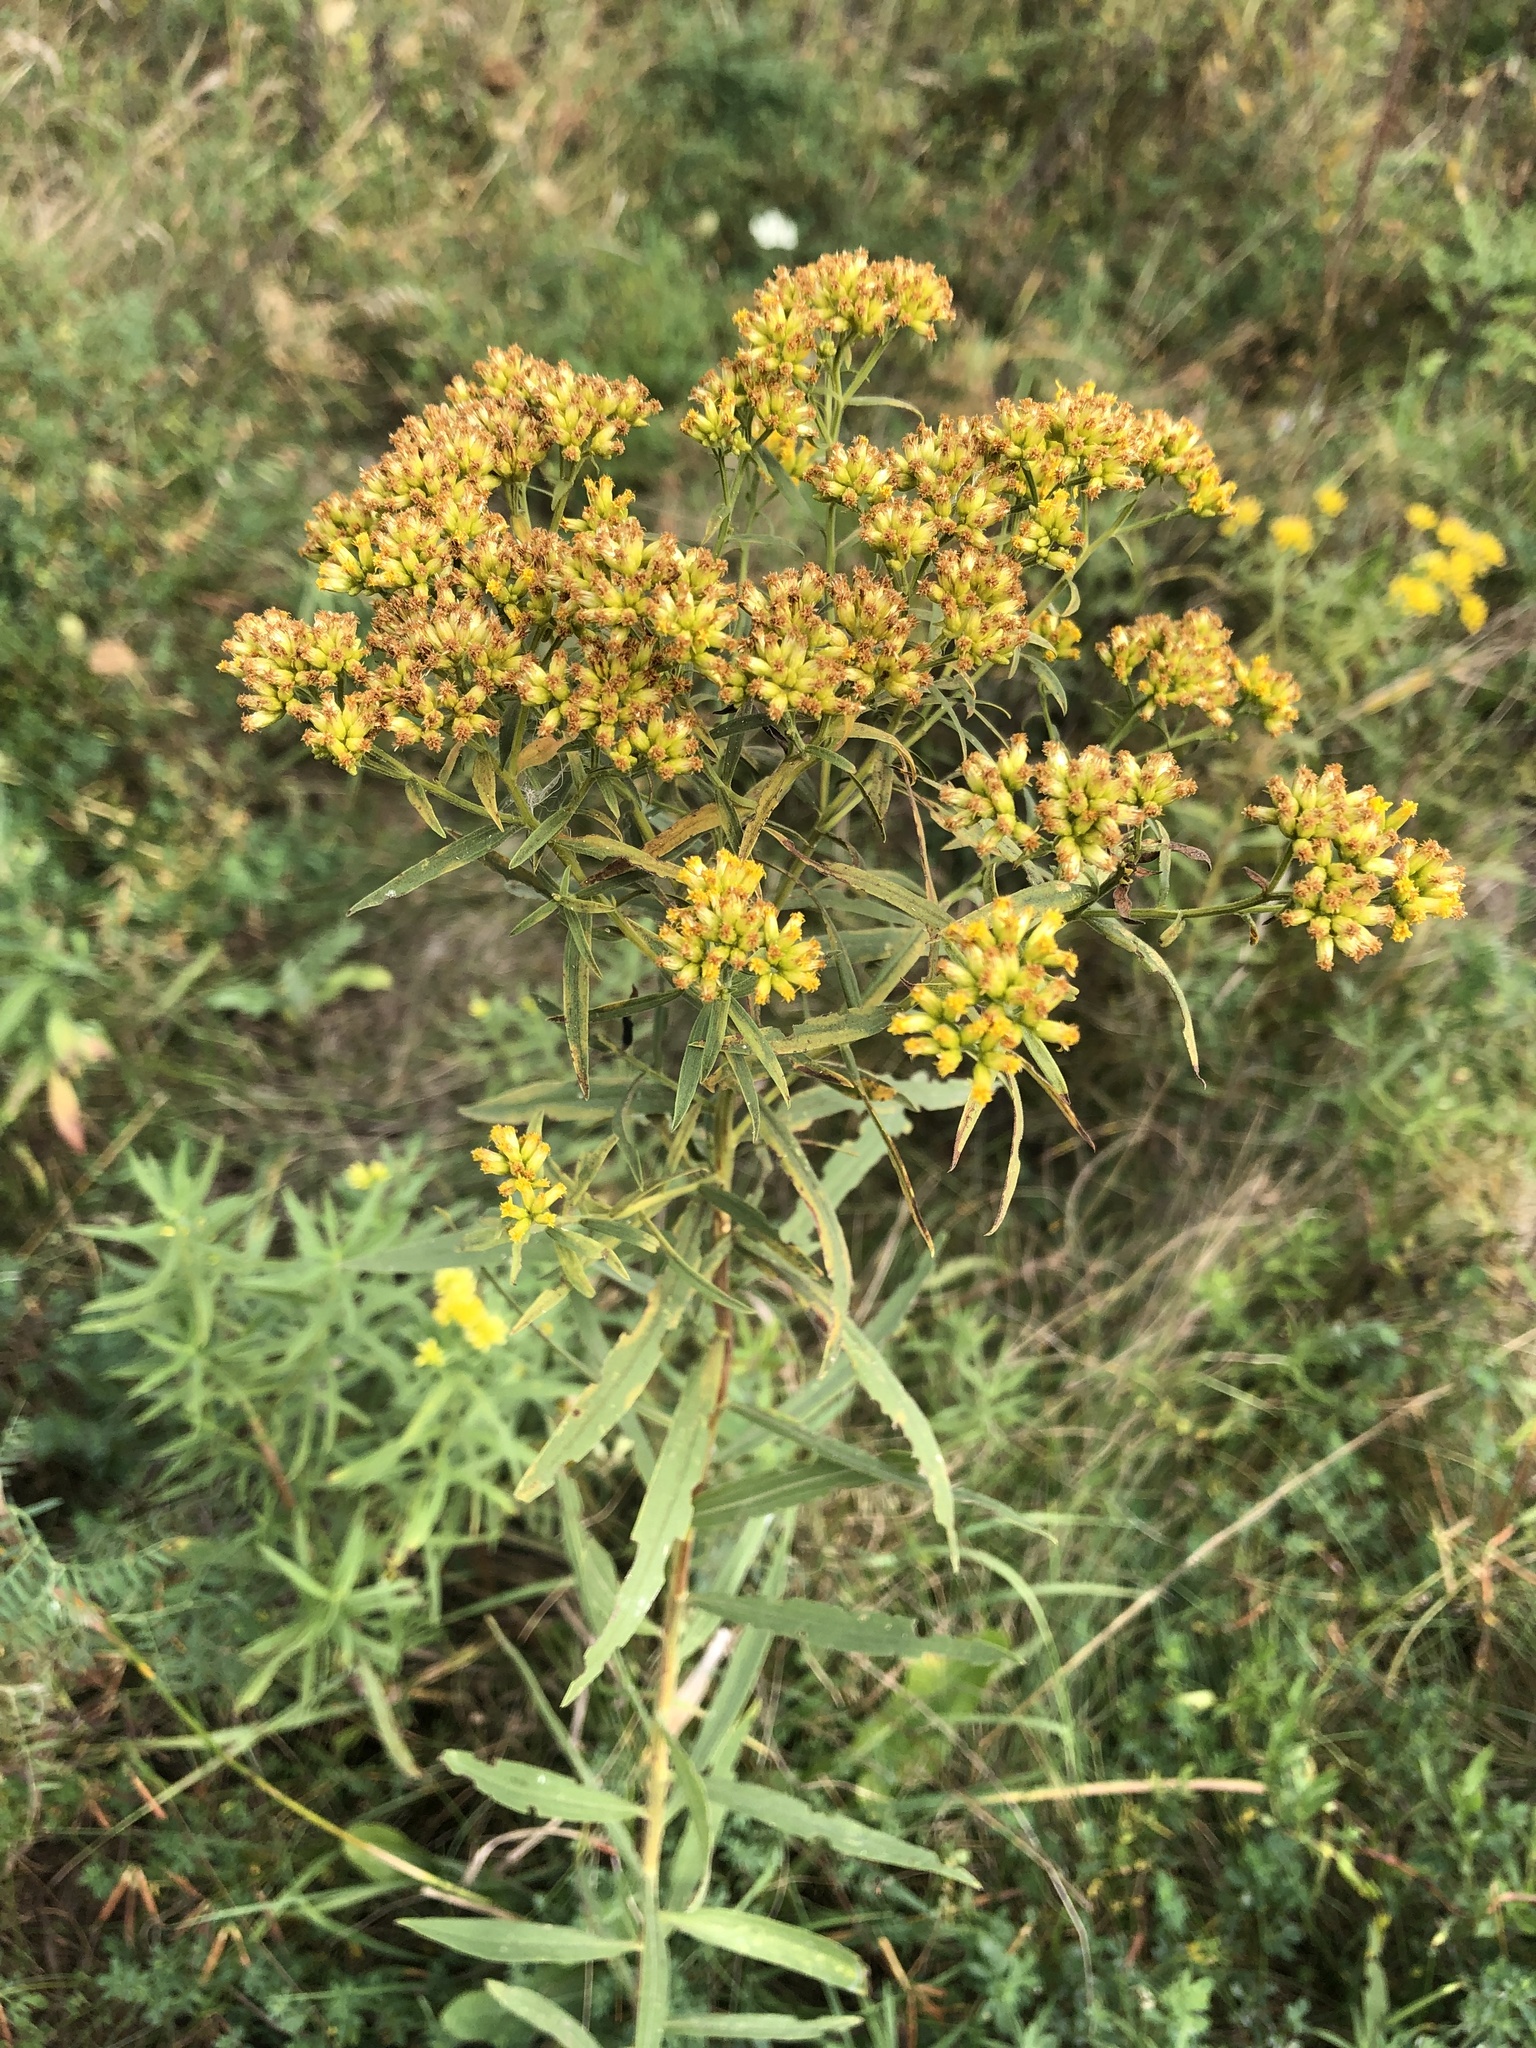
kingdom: Plantae
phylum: Tracheophyta
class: Magnoliopsida
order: Asterales
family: Asteraceae
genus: Euthamia
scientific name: Euthamia graminifolia
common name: Common goldentop
